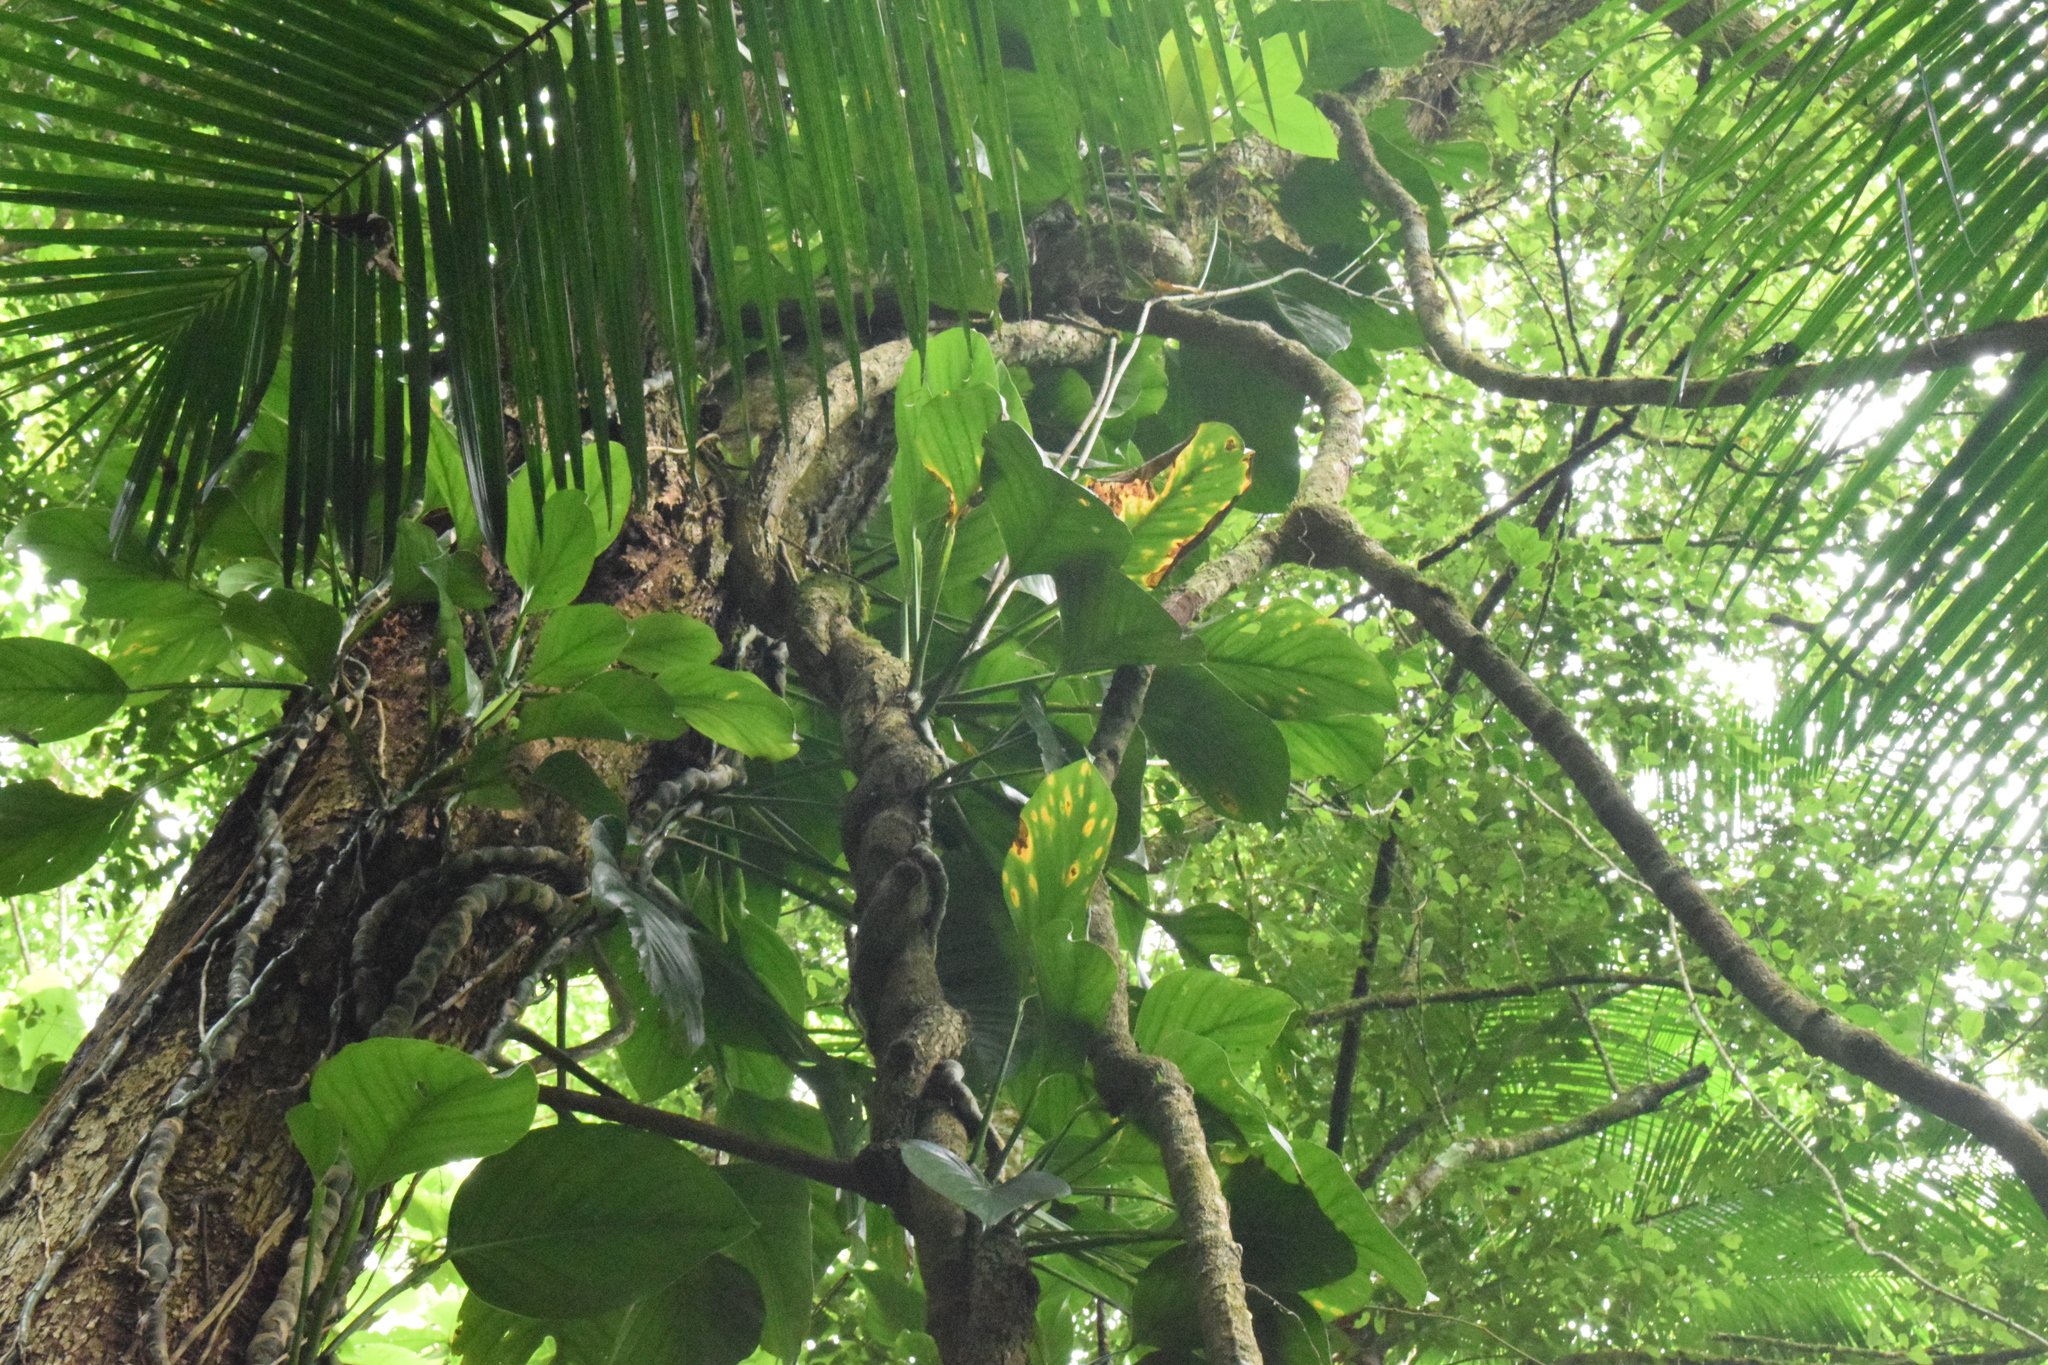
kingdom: Plantae
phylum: Tracheophyta
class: Liliopsida
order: Alismatales
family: Araceae
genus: Monstera
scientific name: Monstera adansonii
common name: Tarovine
